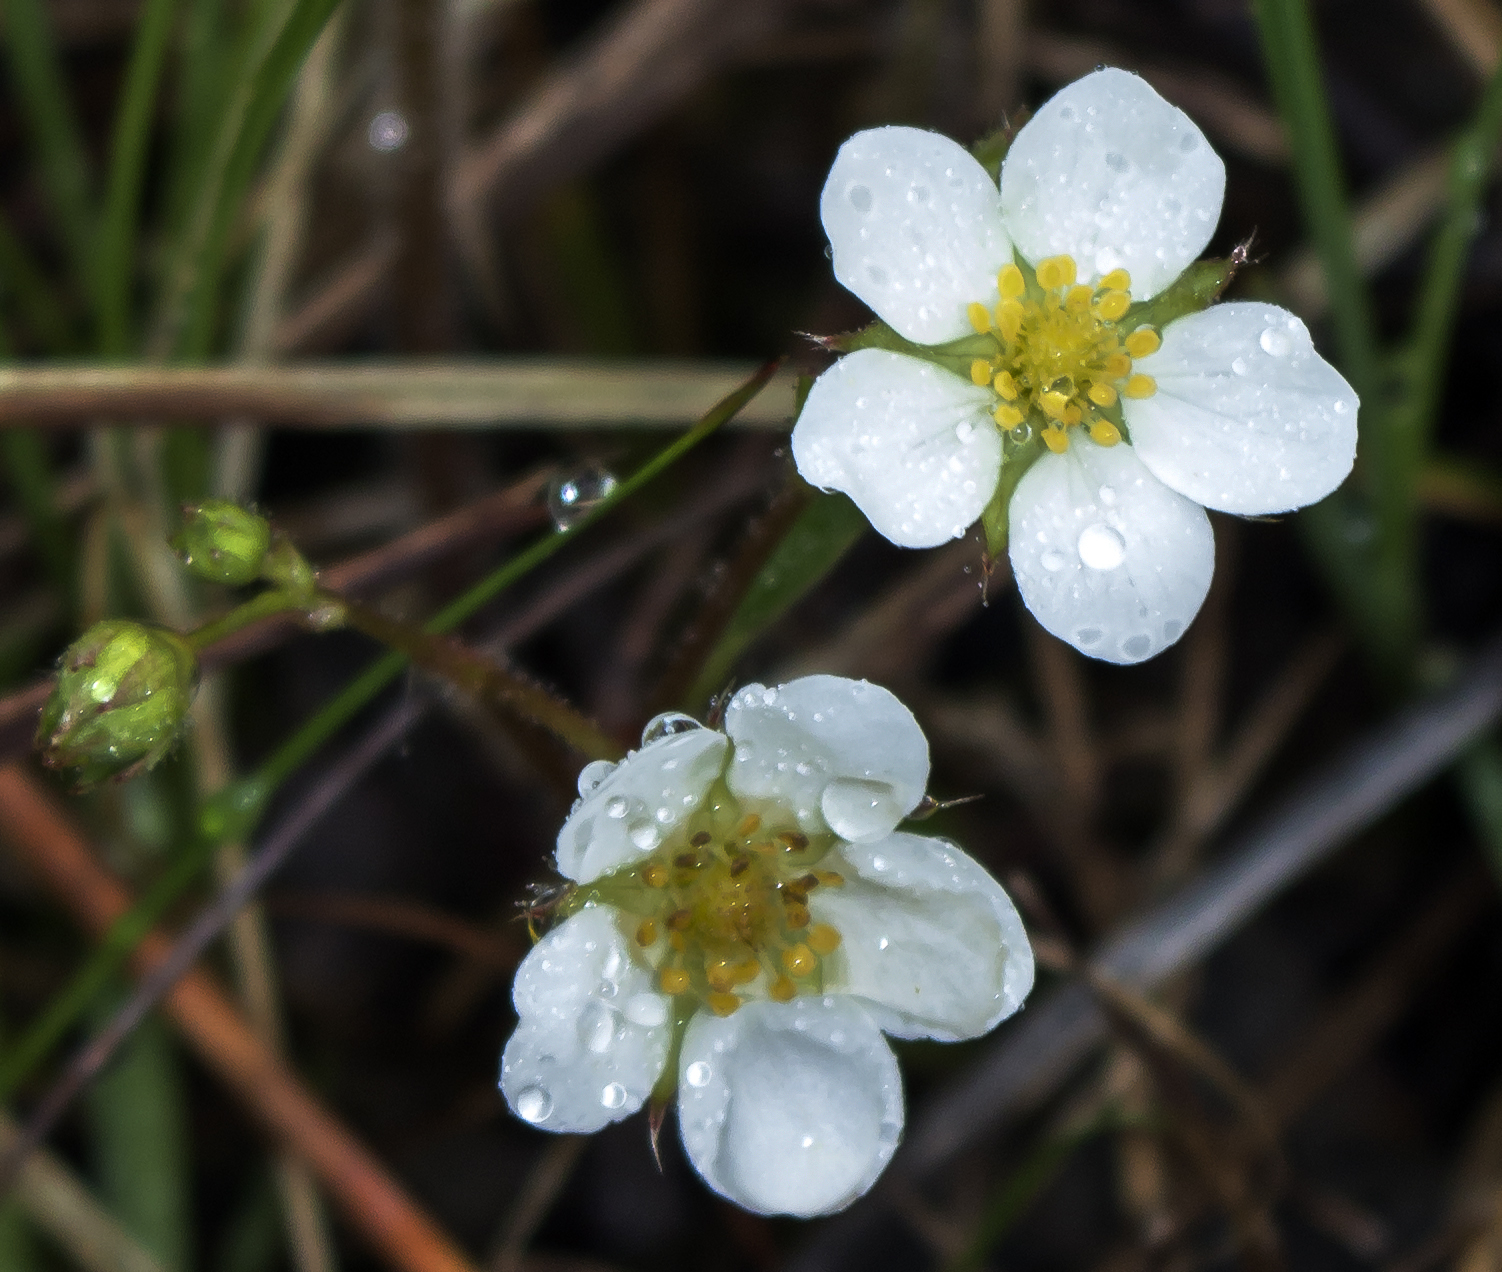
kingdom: Plantae
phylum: Tracheophyta
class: Magnoliopsida
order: Rosales
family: Rosaceae
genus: Fragaria
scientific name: Fragaria vesca
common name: Wild strawberry
